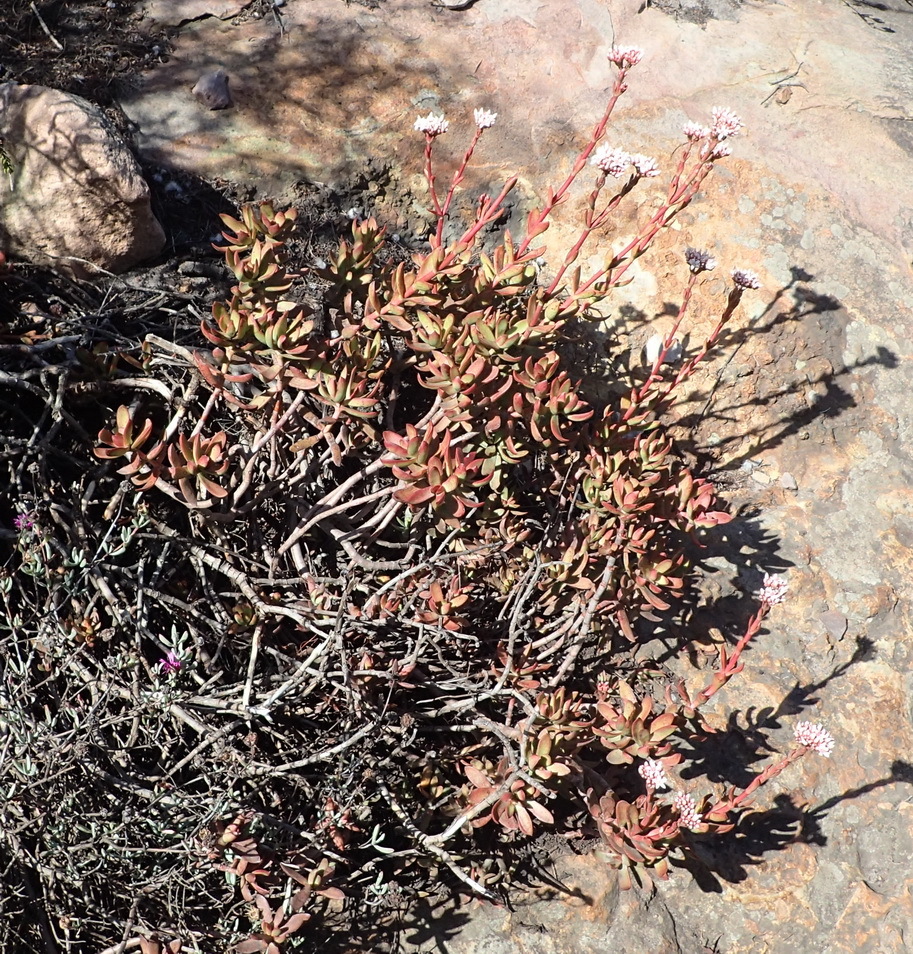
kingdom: Plantae
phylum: Tracheophyta
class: Magnoliopsida
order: Saxifragales
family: Crassulaceae
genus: Crassula
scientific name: Crassula rubricaulis
